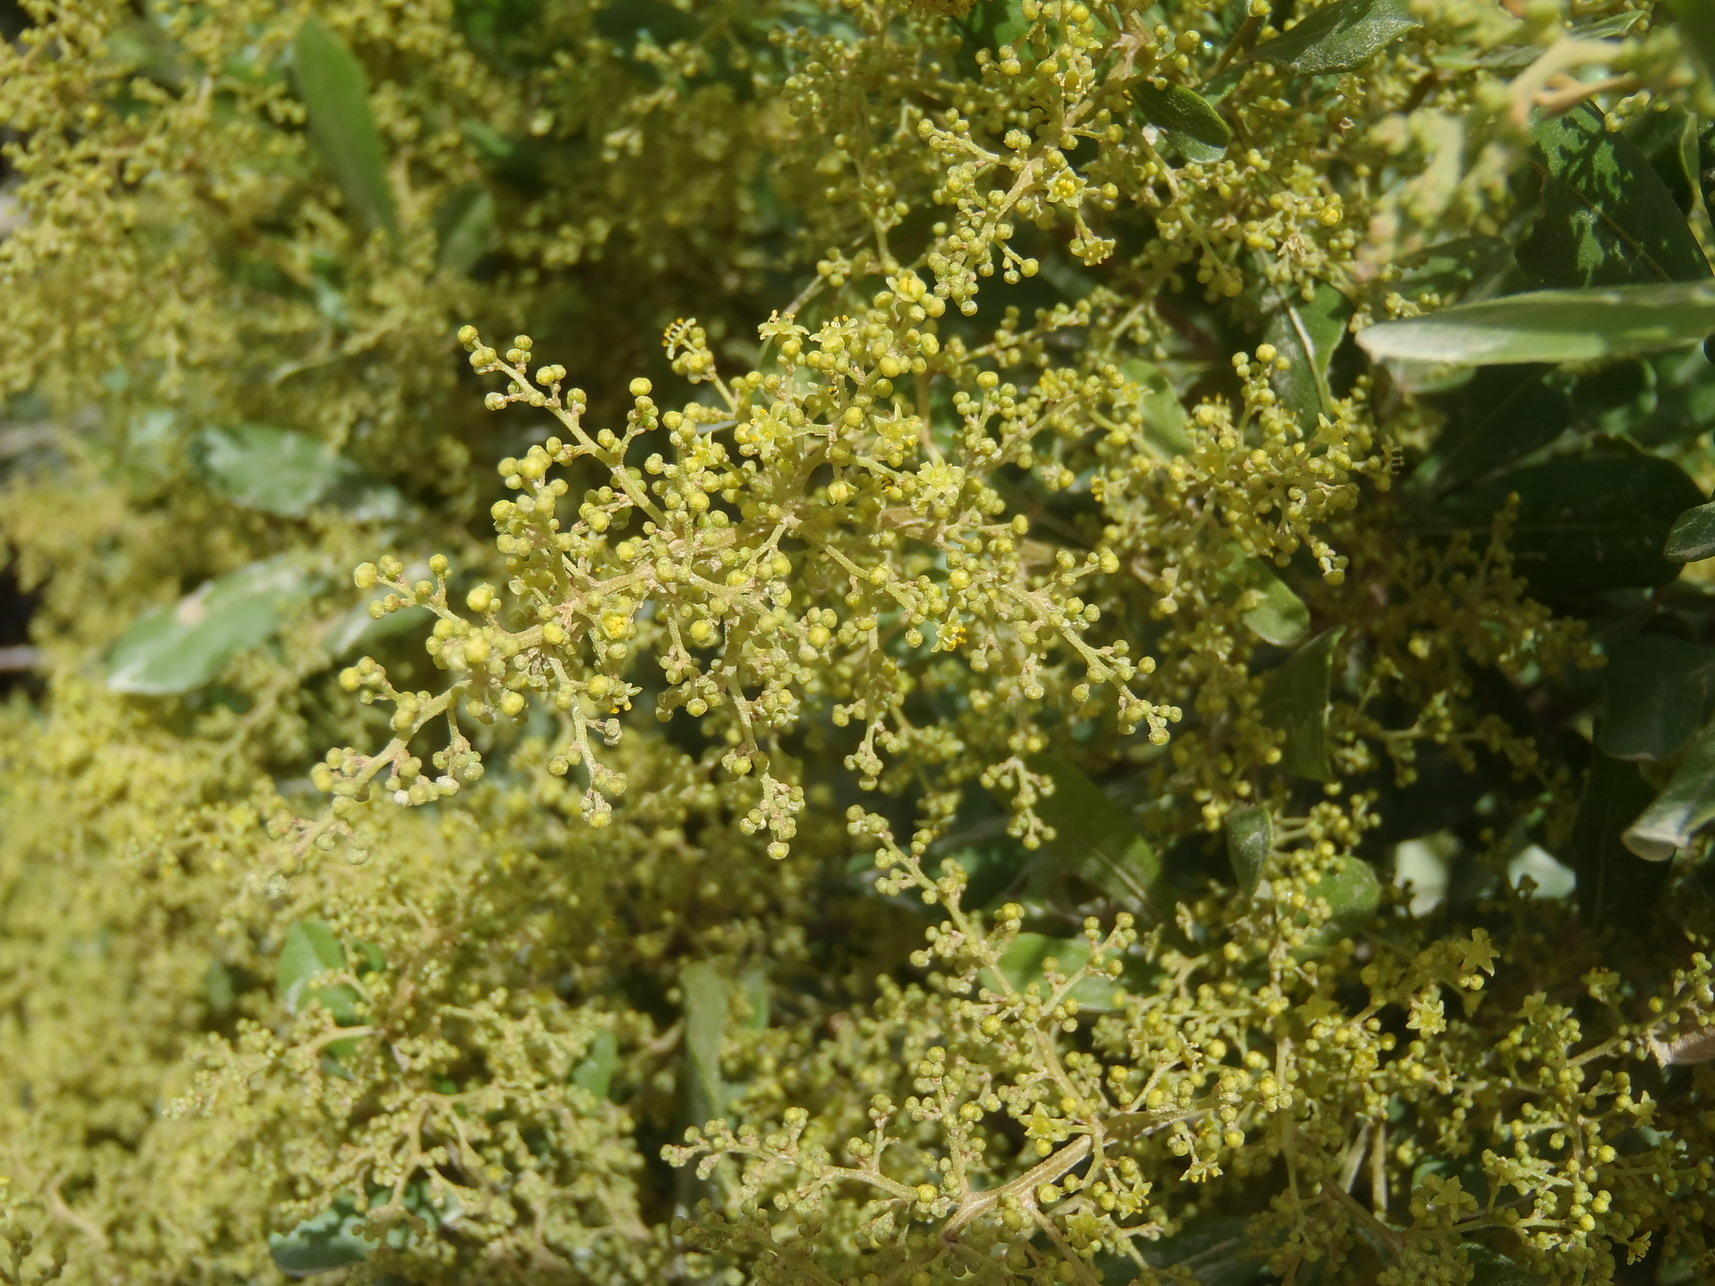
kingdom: Plantae
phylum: Tracheophyta
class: Magnoliopsida
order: Sapindales
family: Anacardiaceae
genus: Searsia
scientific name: Searsia pallens
